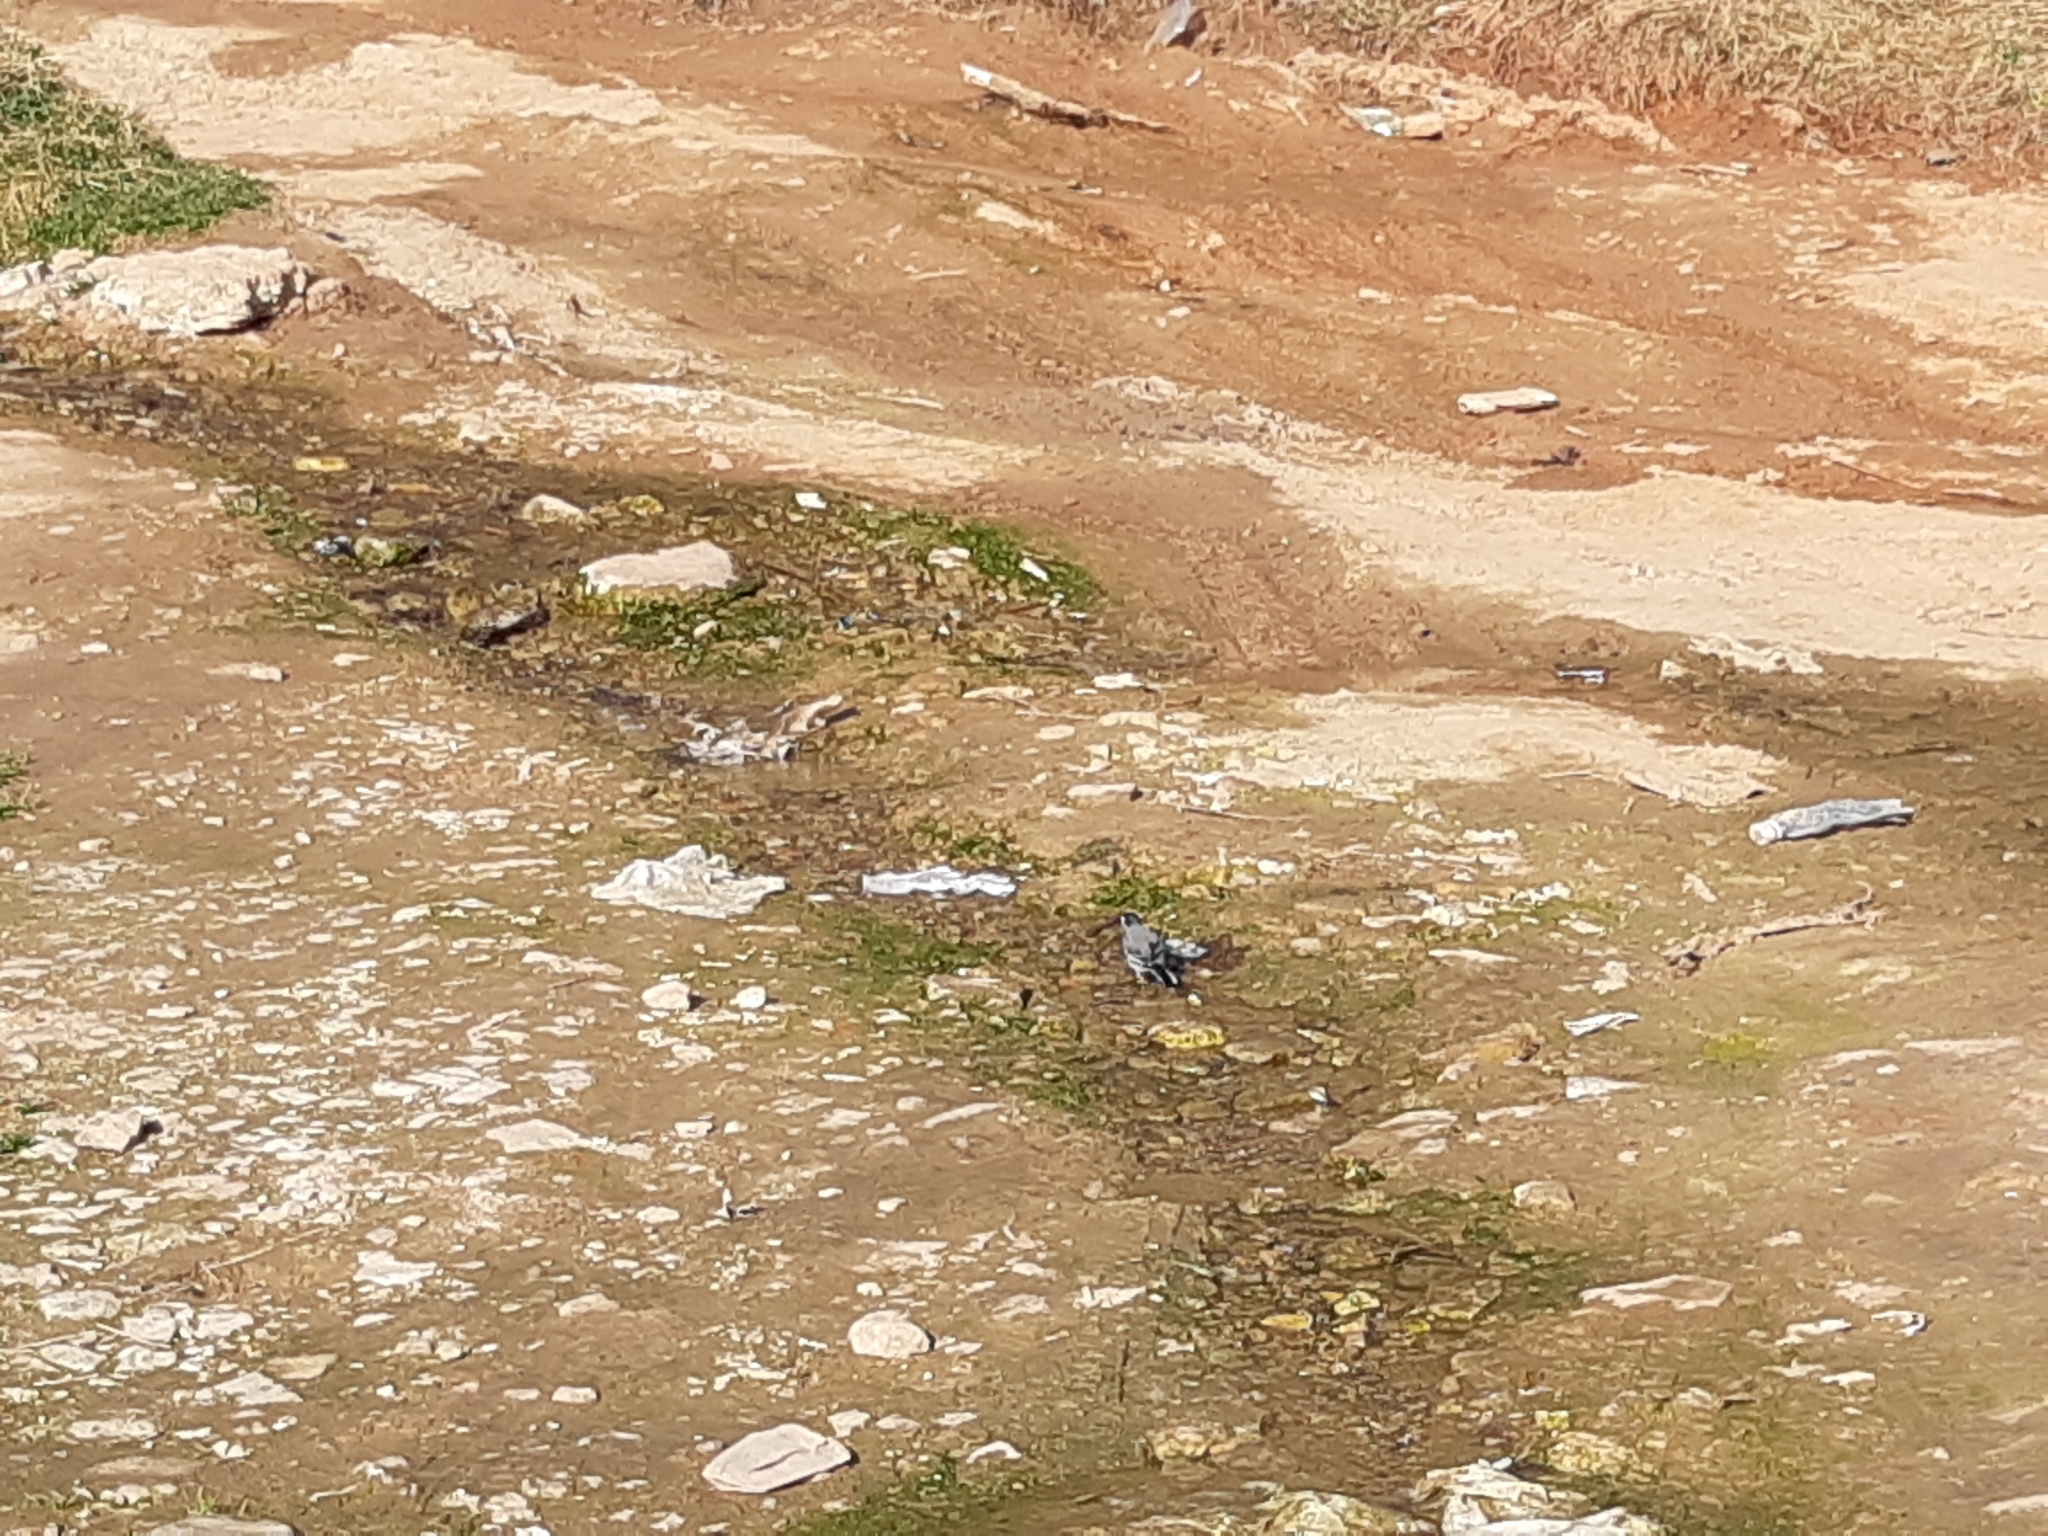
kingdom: Animalia
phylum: Chordata
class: Aves
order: Passeriformes
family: Motacillidae
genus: Motacilla
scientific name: Motacilla alba
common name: White wagtail
